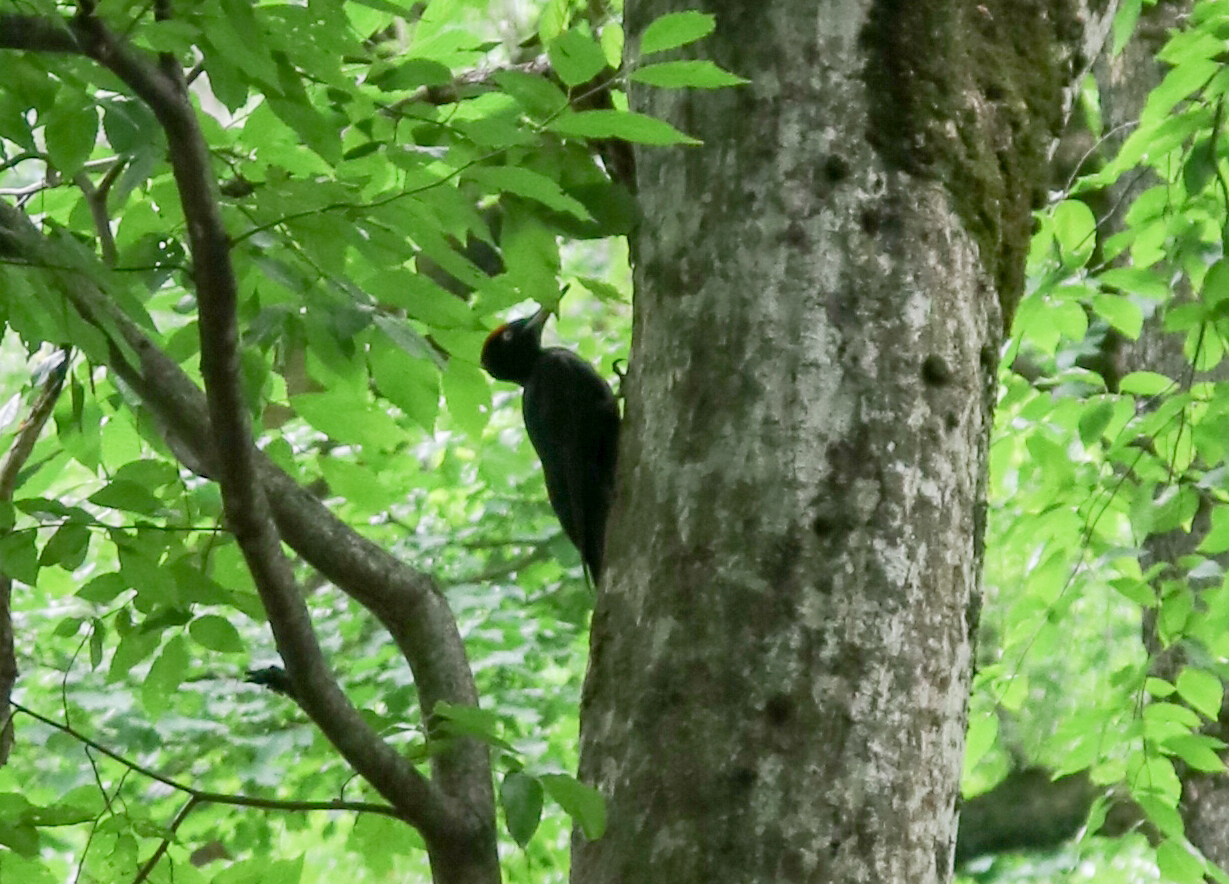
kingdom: Animalia
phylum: Chordata
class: Aves
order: Piciformes
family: Picidae
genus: Dryocopus
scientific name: Dryocopus martius
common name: Black woodpecker
